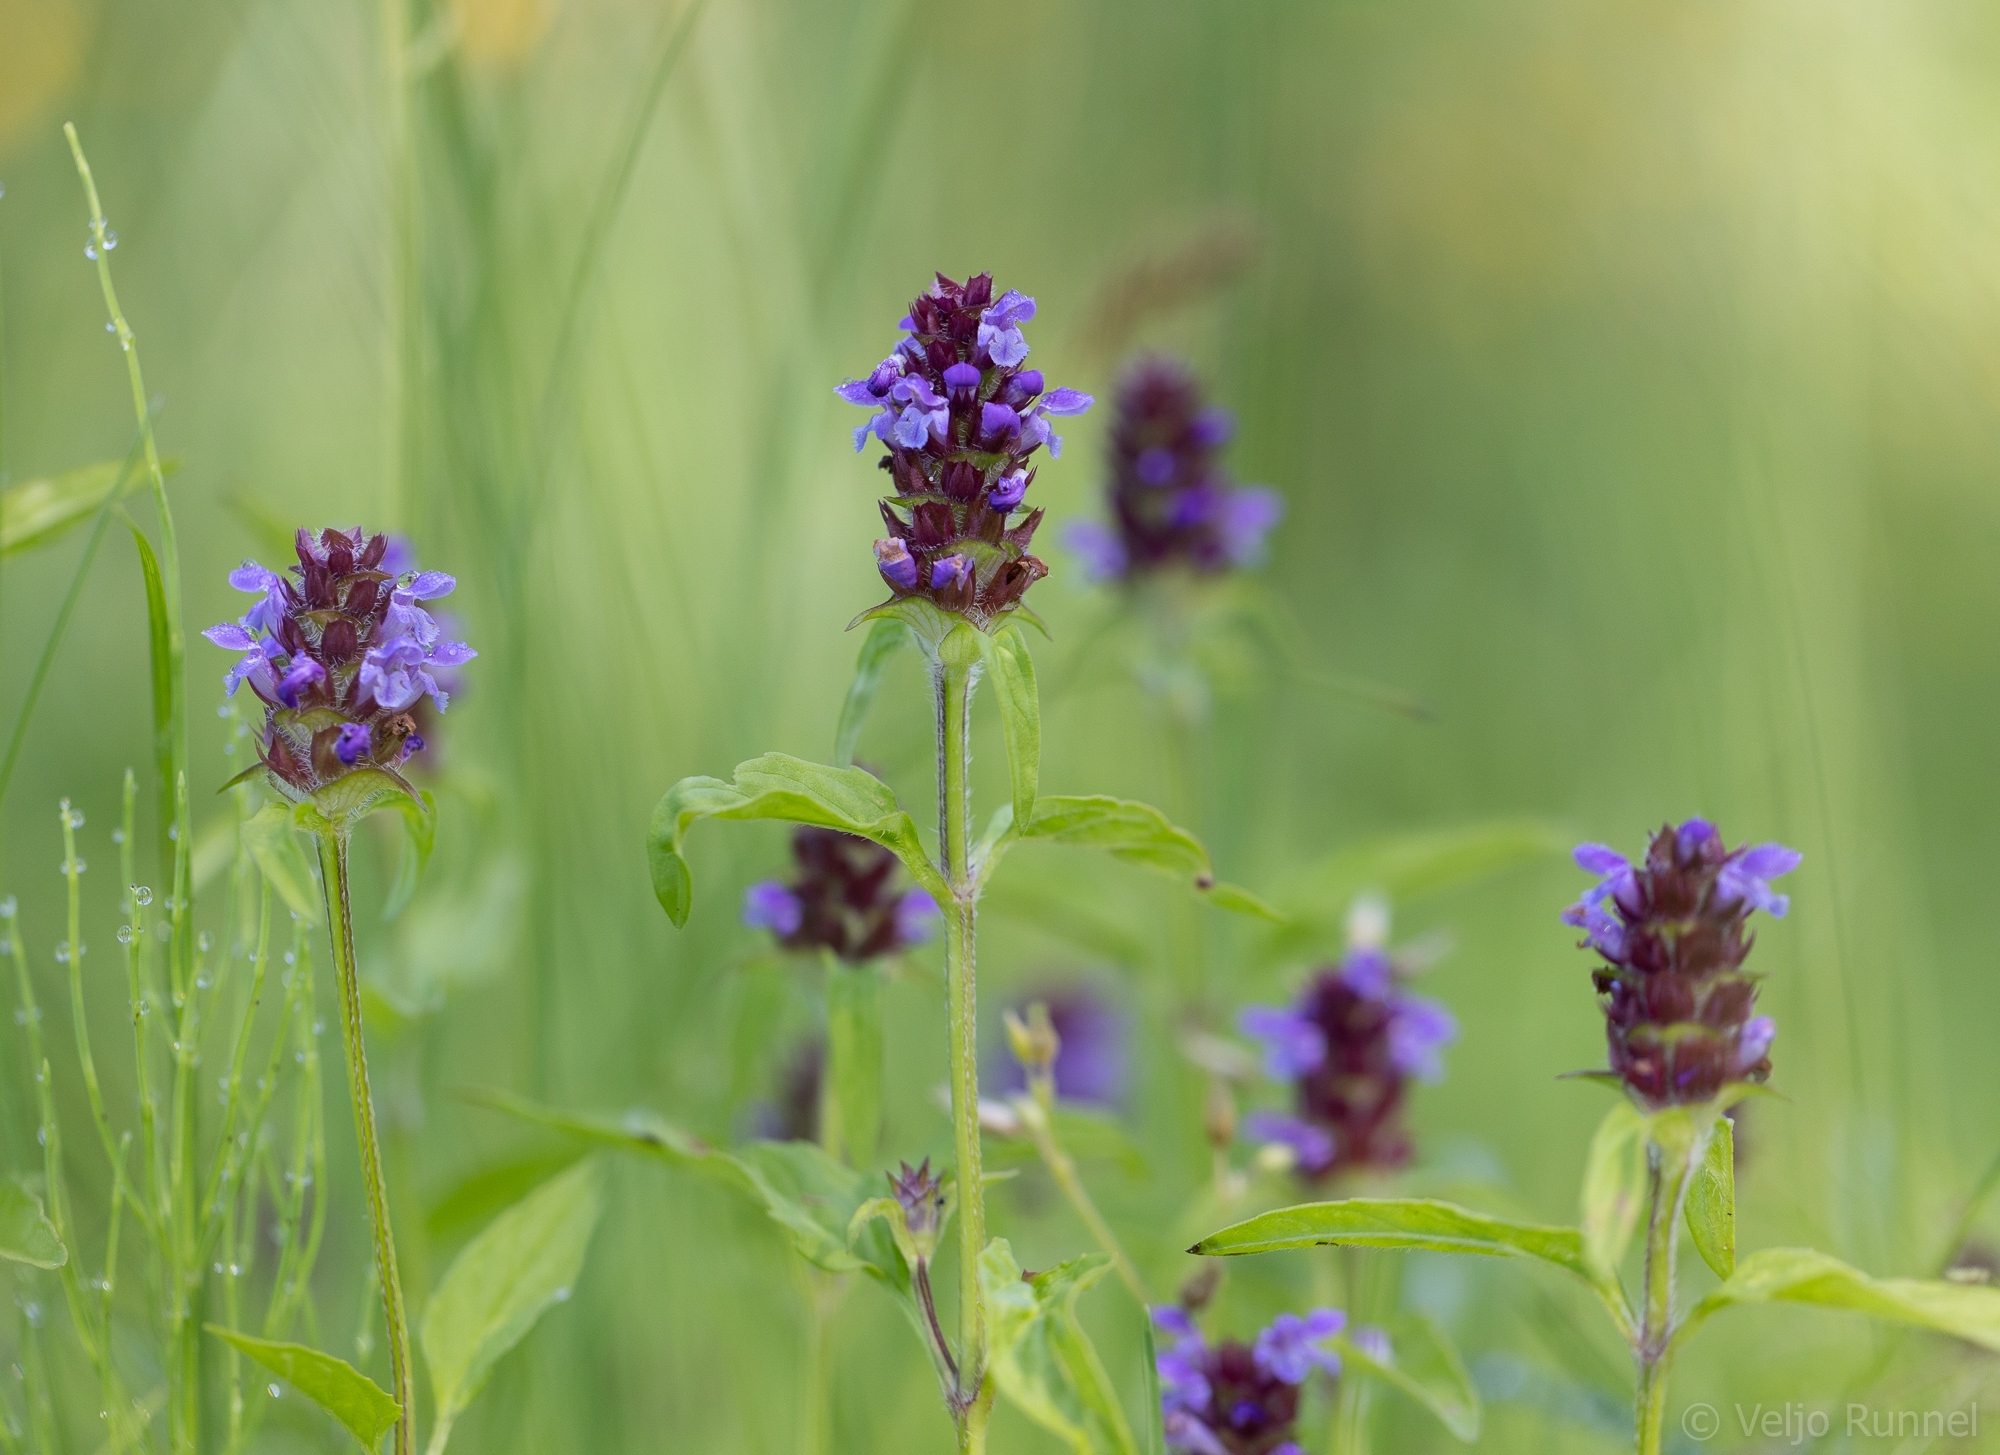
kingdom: Plantae
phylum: Tracheophyta
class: Magnoliopsida
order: Lamiales
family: Lamiaceae
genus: Prunella
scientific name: Prunella vulgaris
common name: Heal-all
